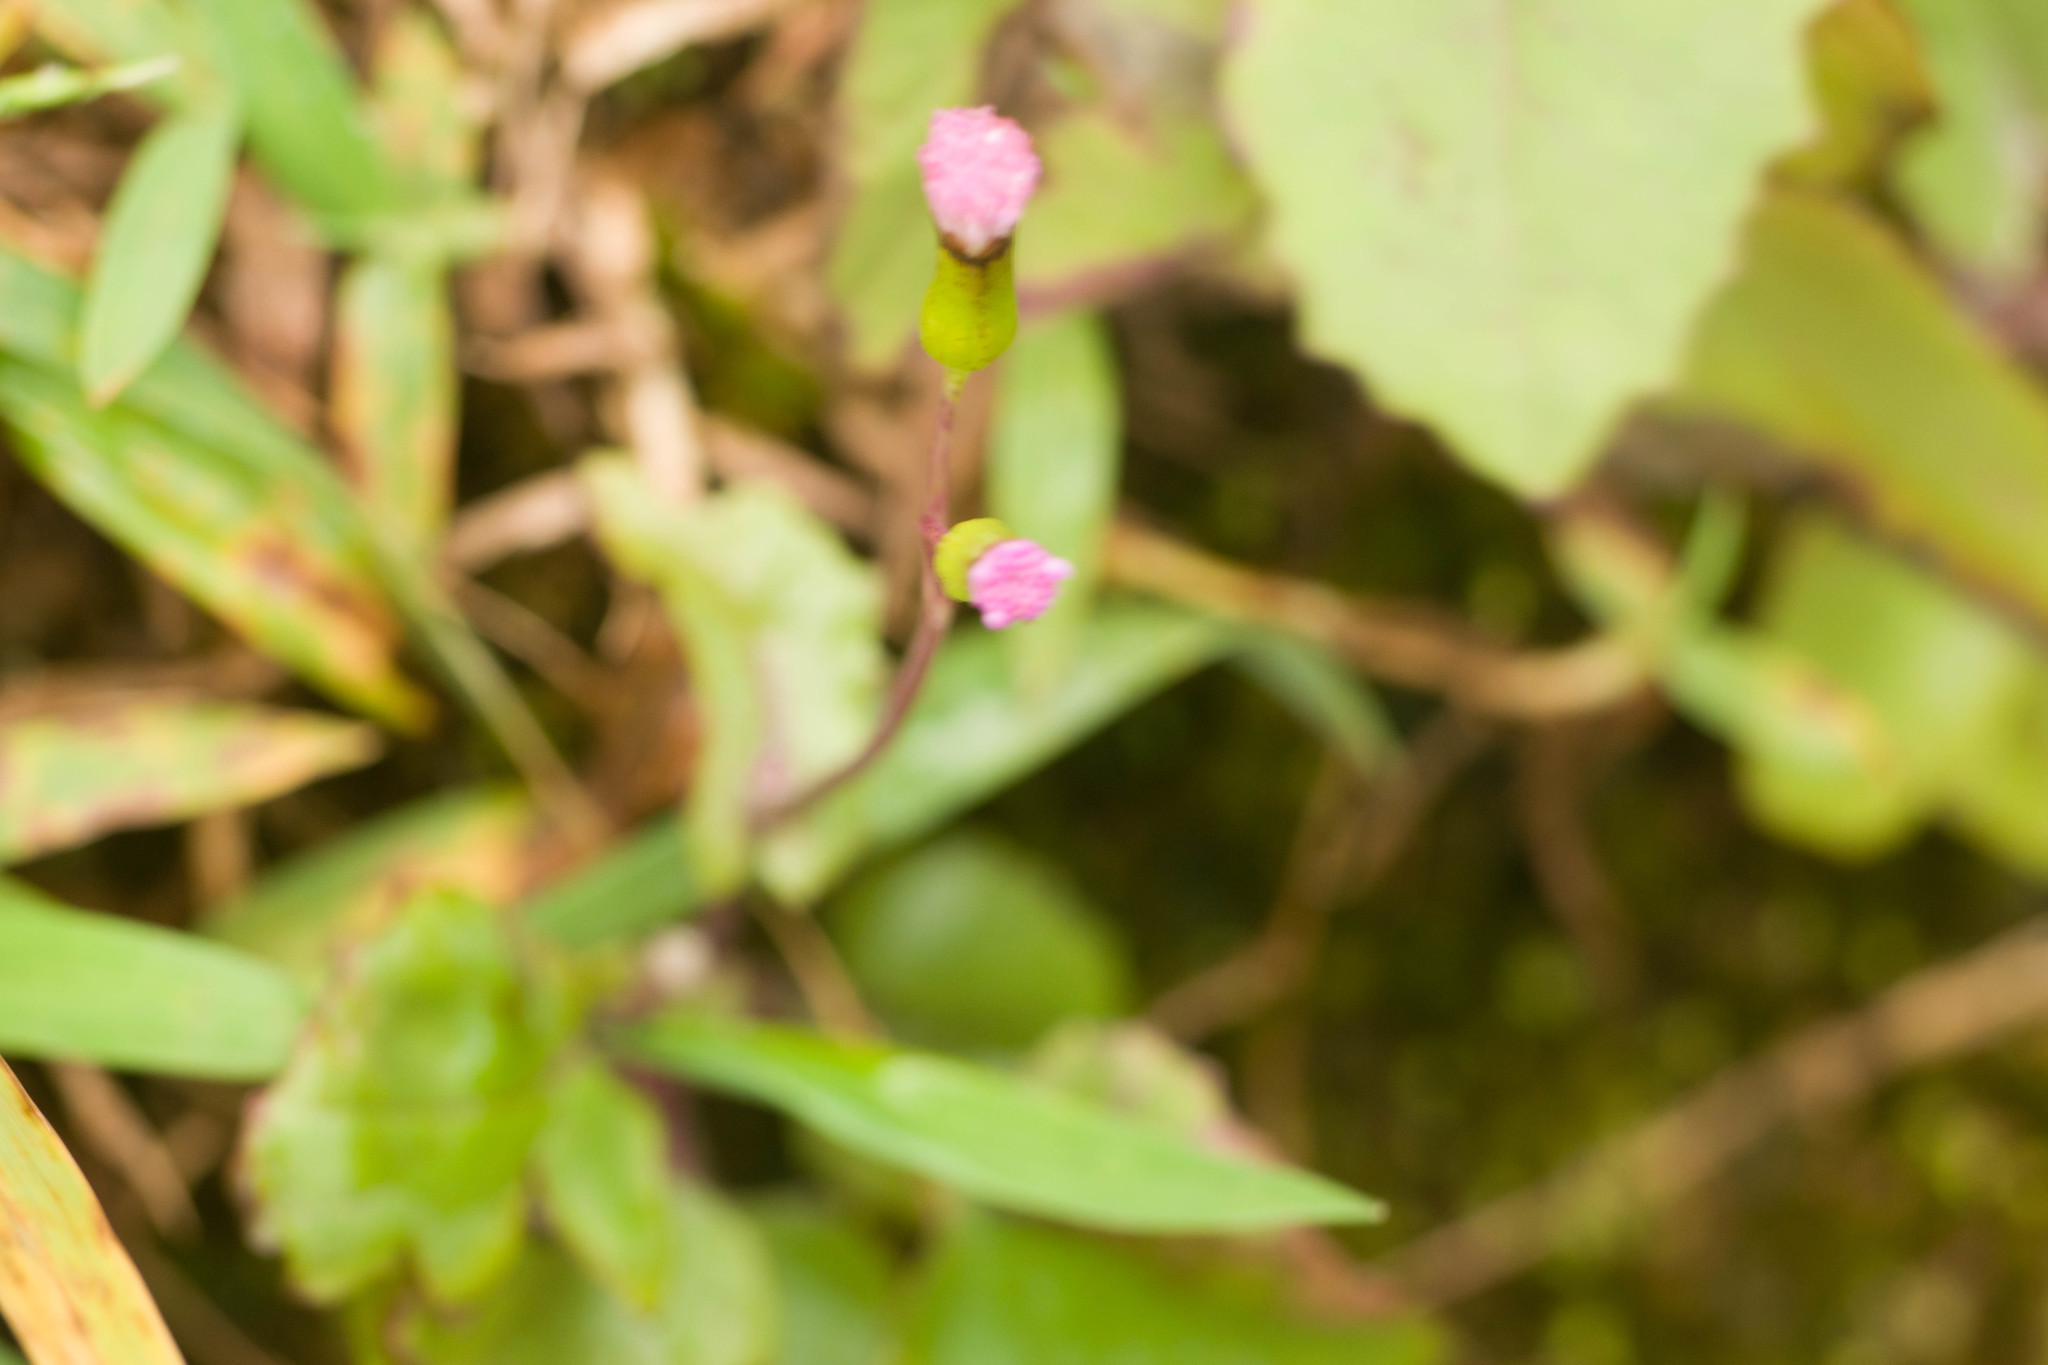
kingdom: Plantae
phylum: Tracheophyta
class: Magnoliopsida
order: Asterales
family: Asteraceae
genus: Emilia
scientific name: Emilia sonchifolia
